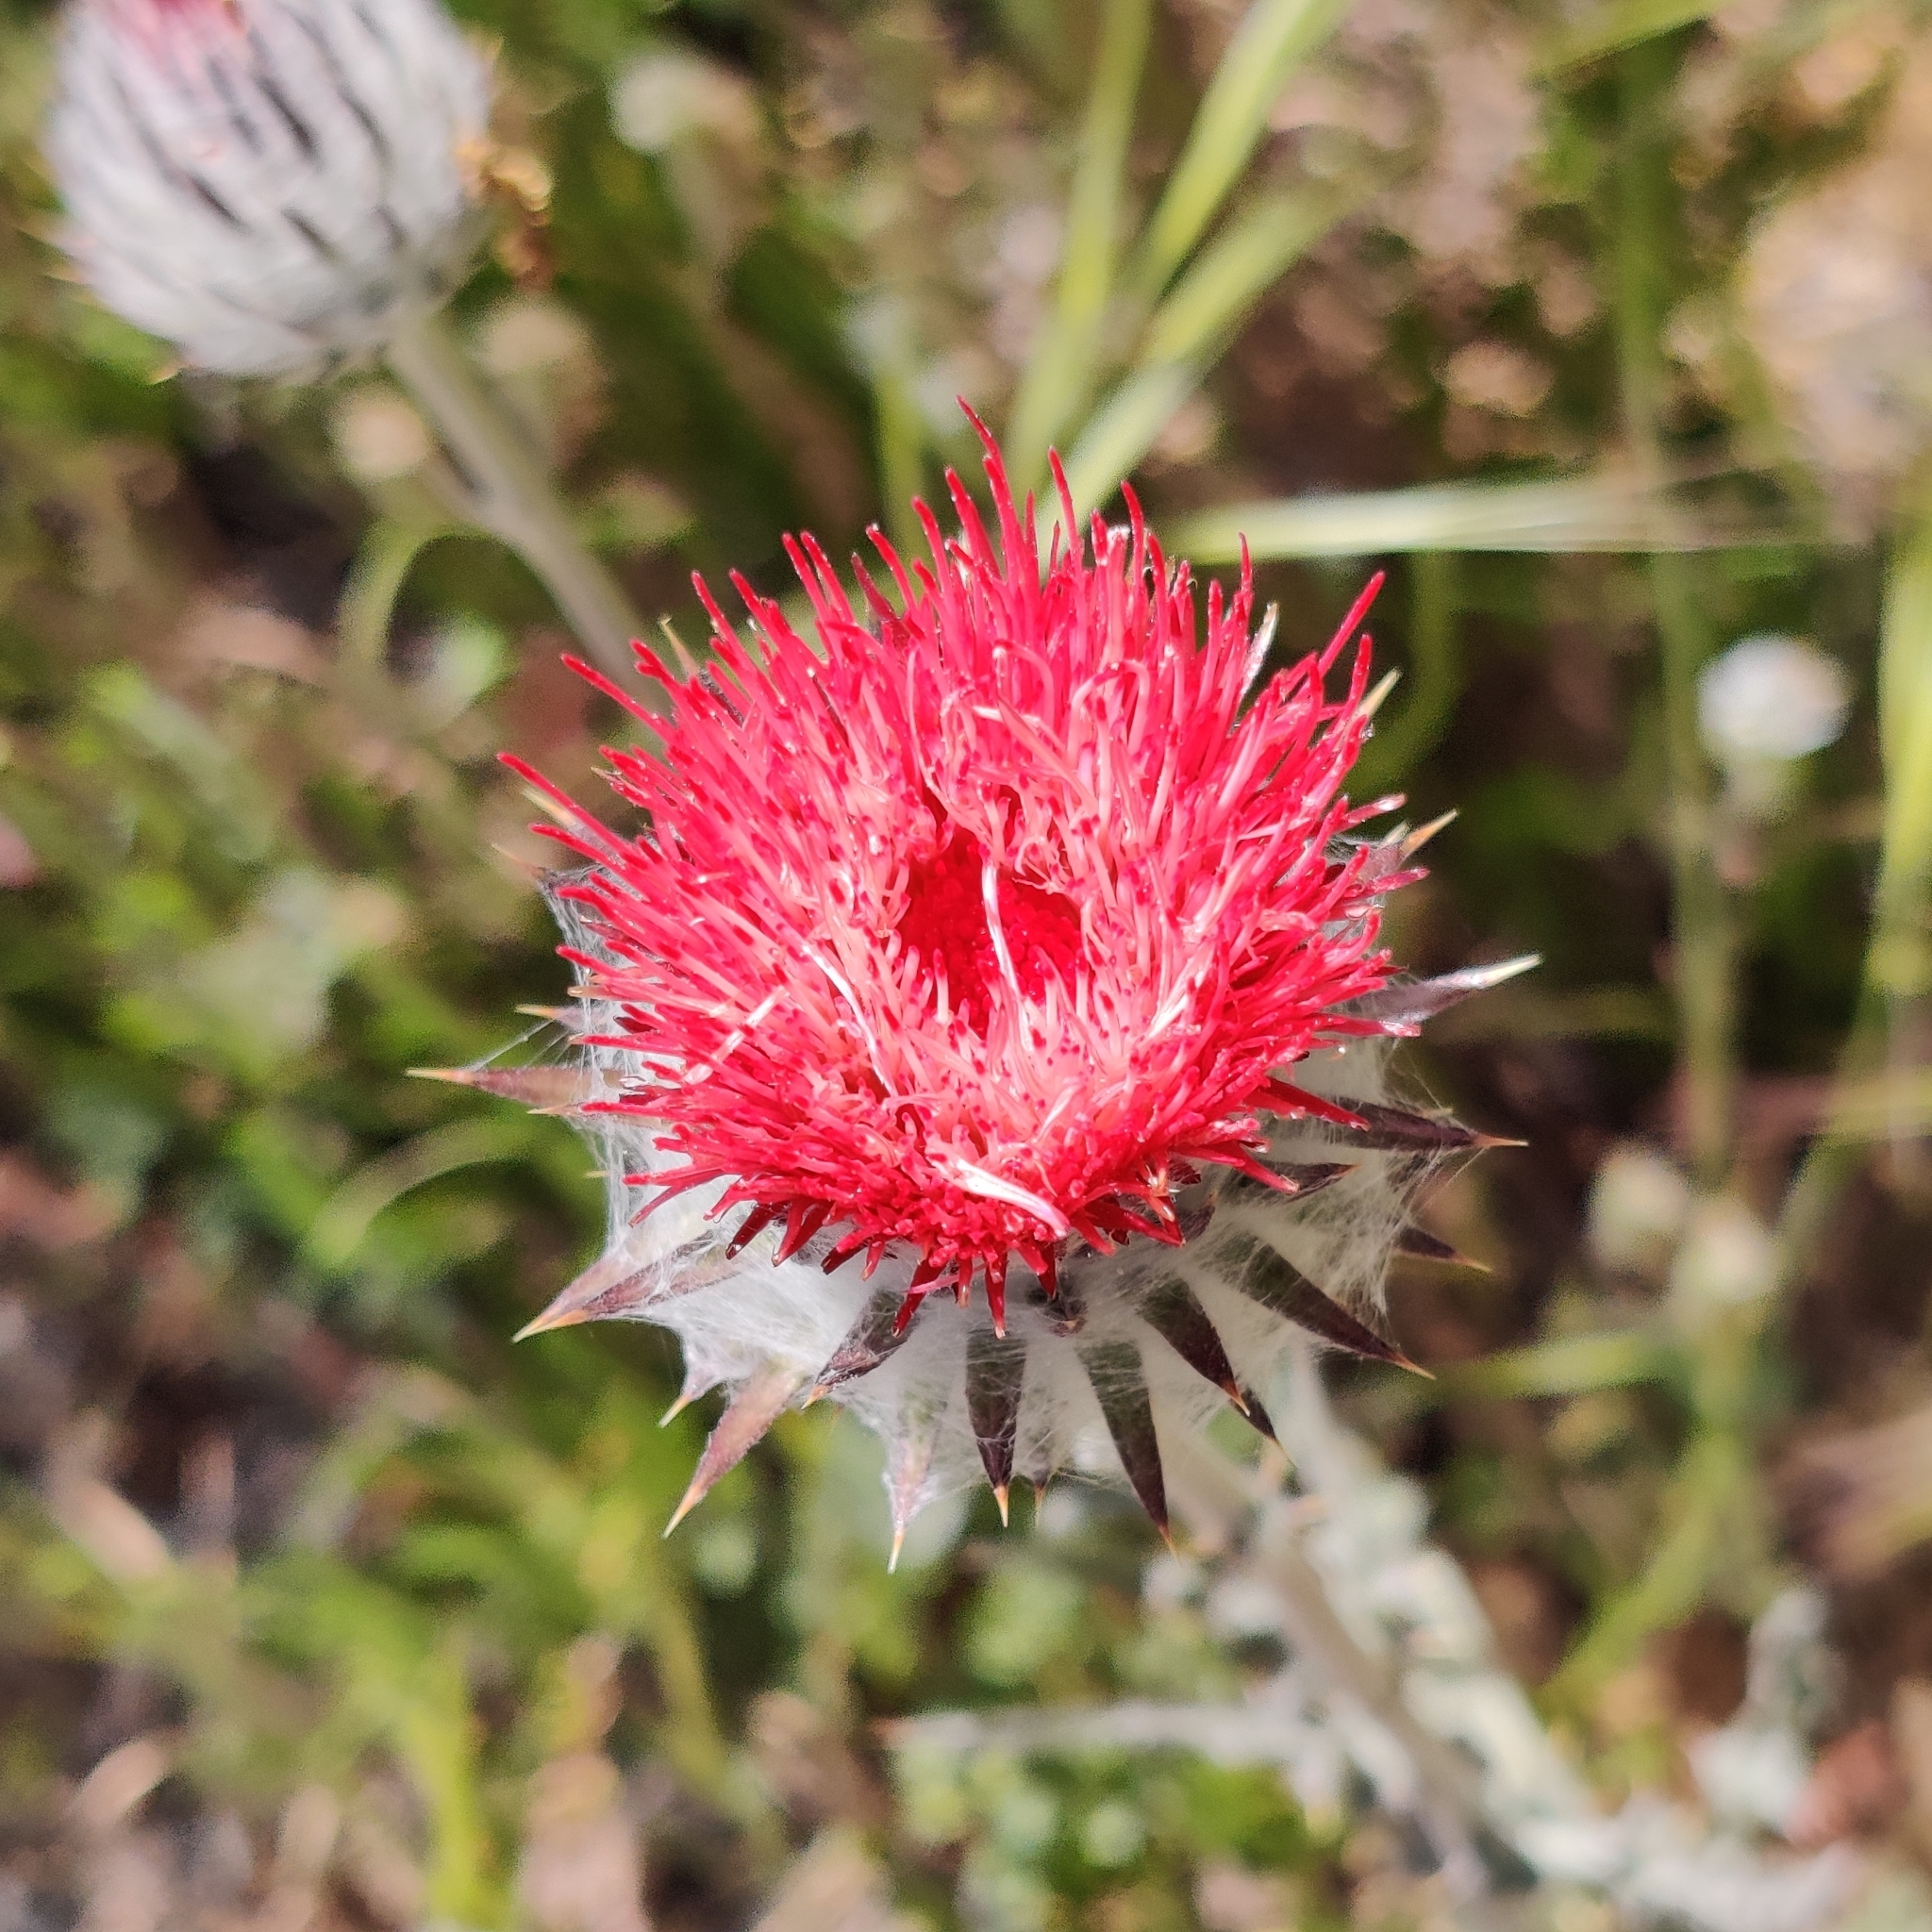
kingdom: Plantae
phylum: Tracheophyta
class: Magnoliopsida
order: Asterales
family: Asteraceae
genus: Cirsium
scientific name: Cirsium occidentale
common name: Western thistle
